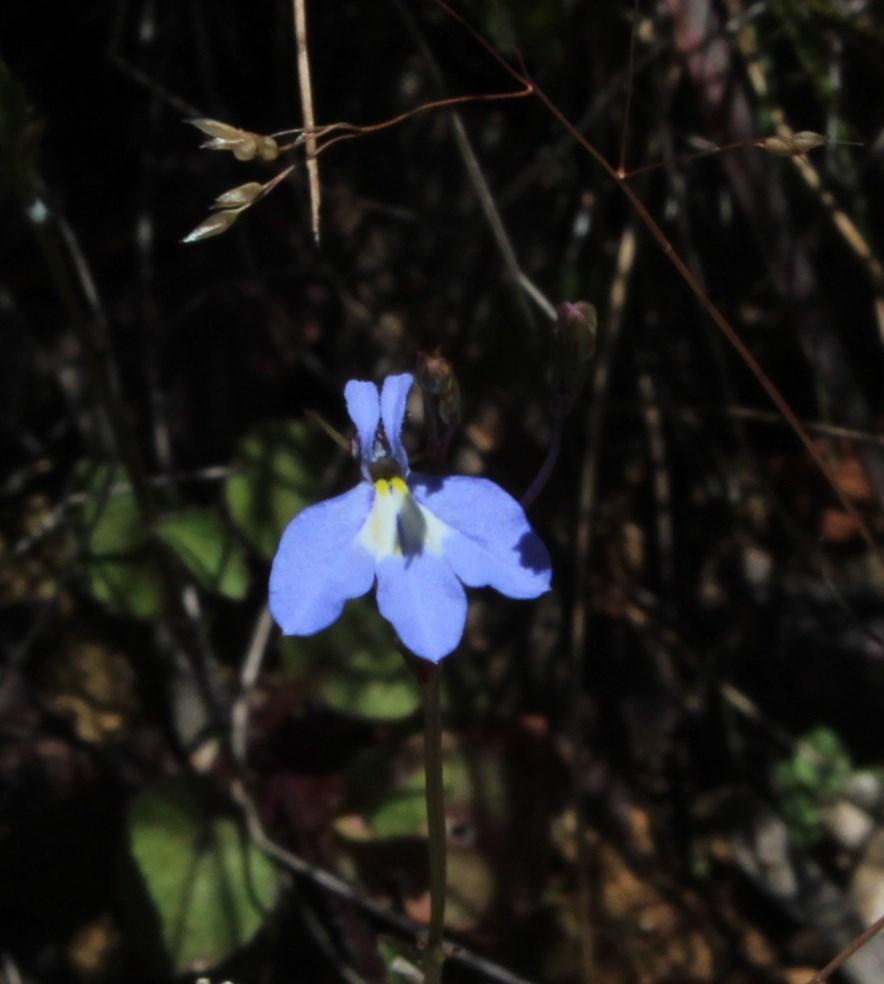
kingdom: Plantae
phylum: Tracheophyta
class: Magnoliopsida
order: Asterales
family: Campanulaceae
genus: Lobelia
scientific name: Lobelia erinus
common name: Edging lobelia
